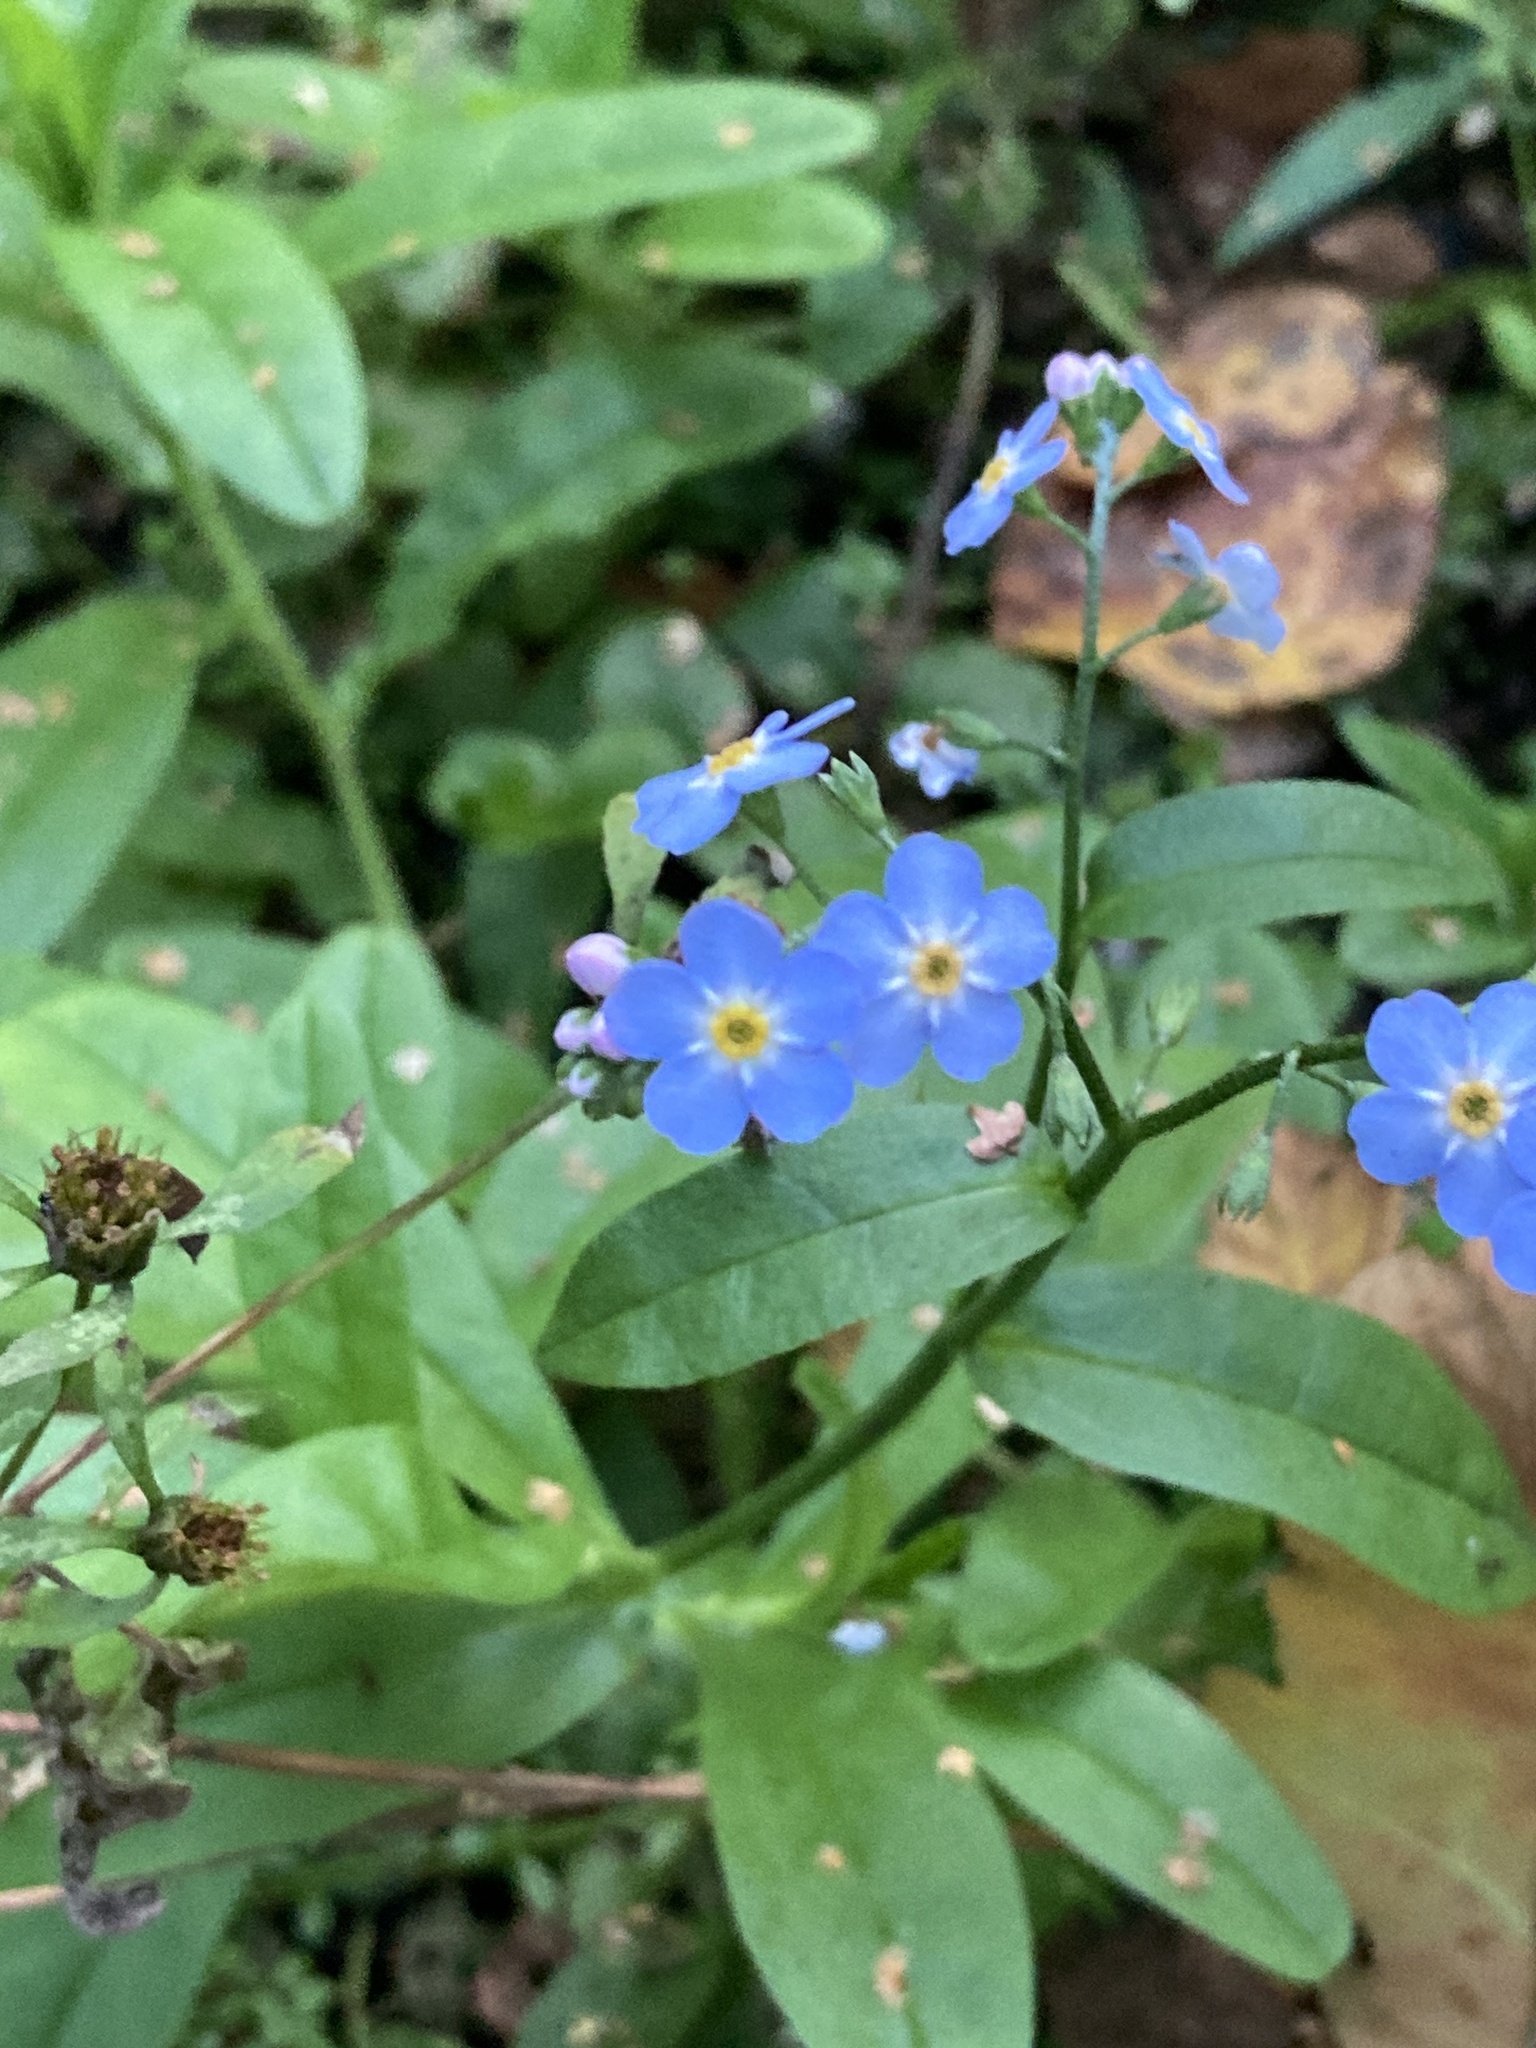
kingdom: Plantae
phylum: Tracheophyta
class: Magnoliopsida
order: Boraginales
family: Boraginaceae
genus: Myosotis
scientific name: Myosotis scorpioides
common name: Water forget-me-not
